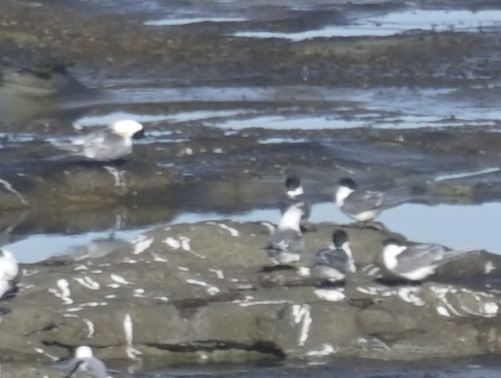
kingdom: Animalia
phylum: Chordata
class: Aves
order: Charadriiformes
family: Laridae
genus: Thalasseus
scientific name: Thalasseus bergii
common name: Greater crested tern
